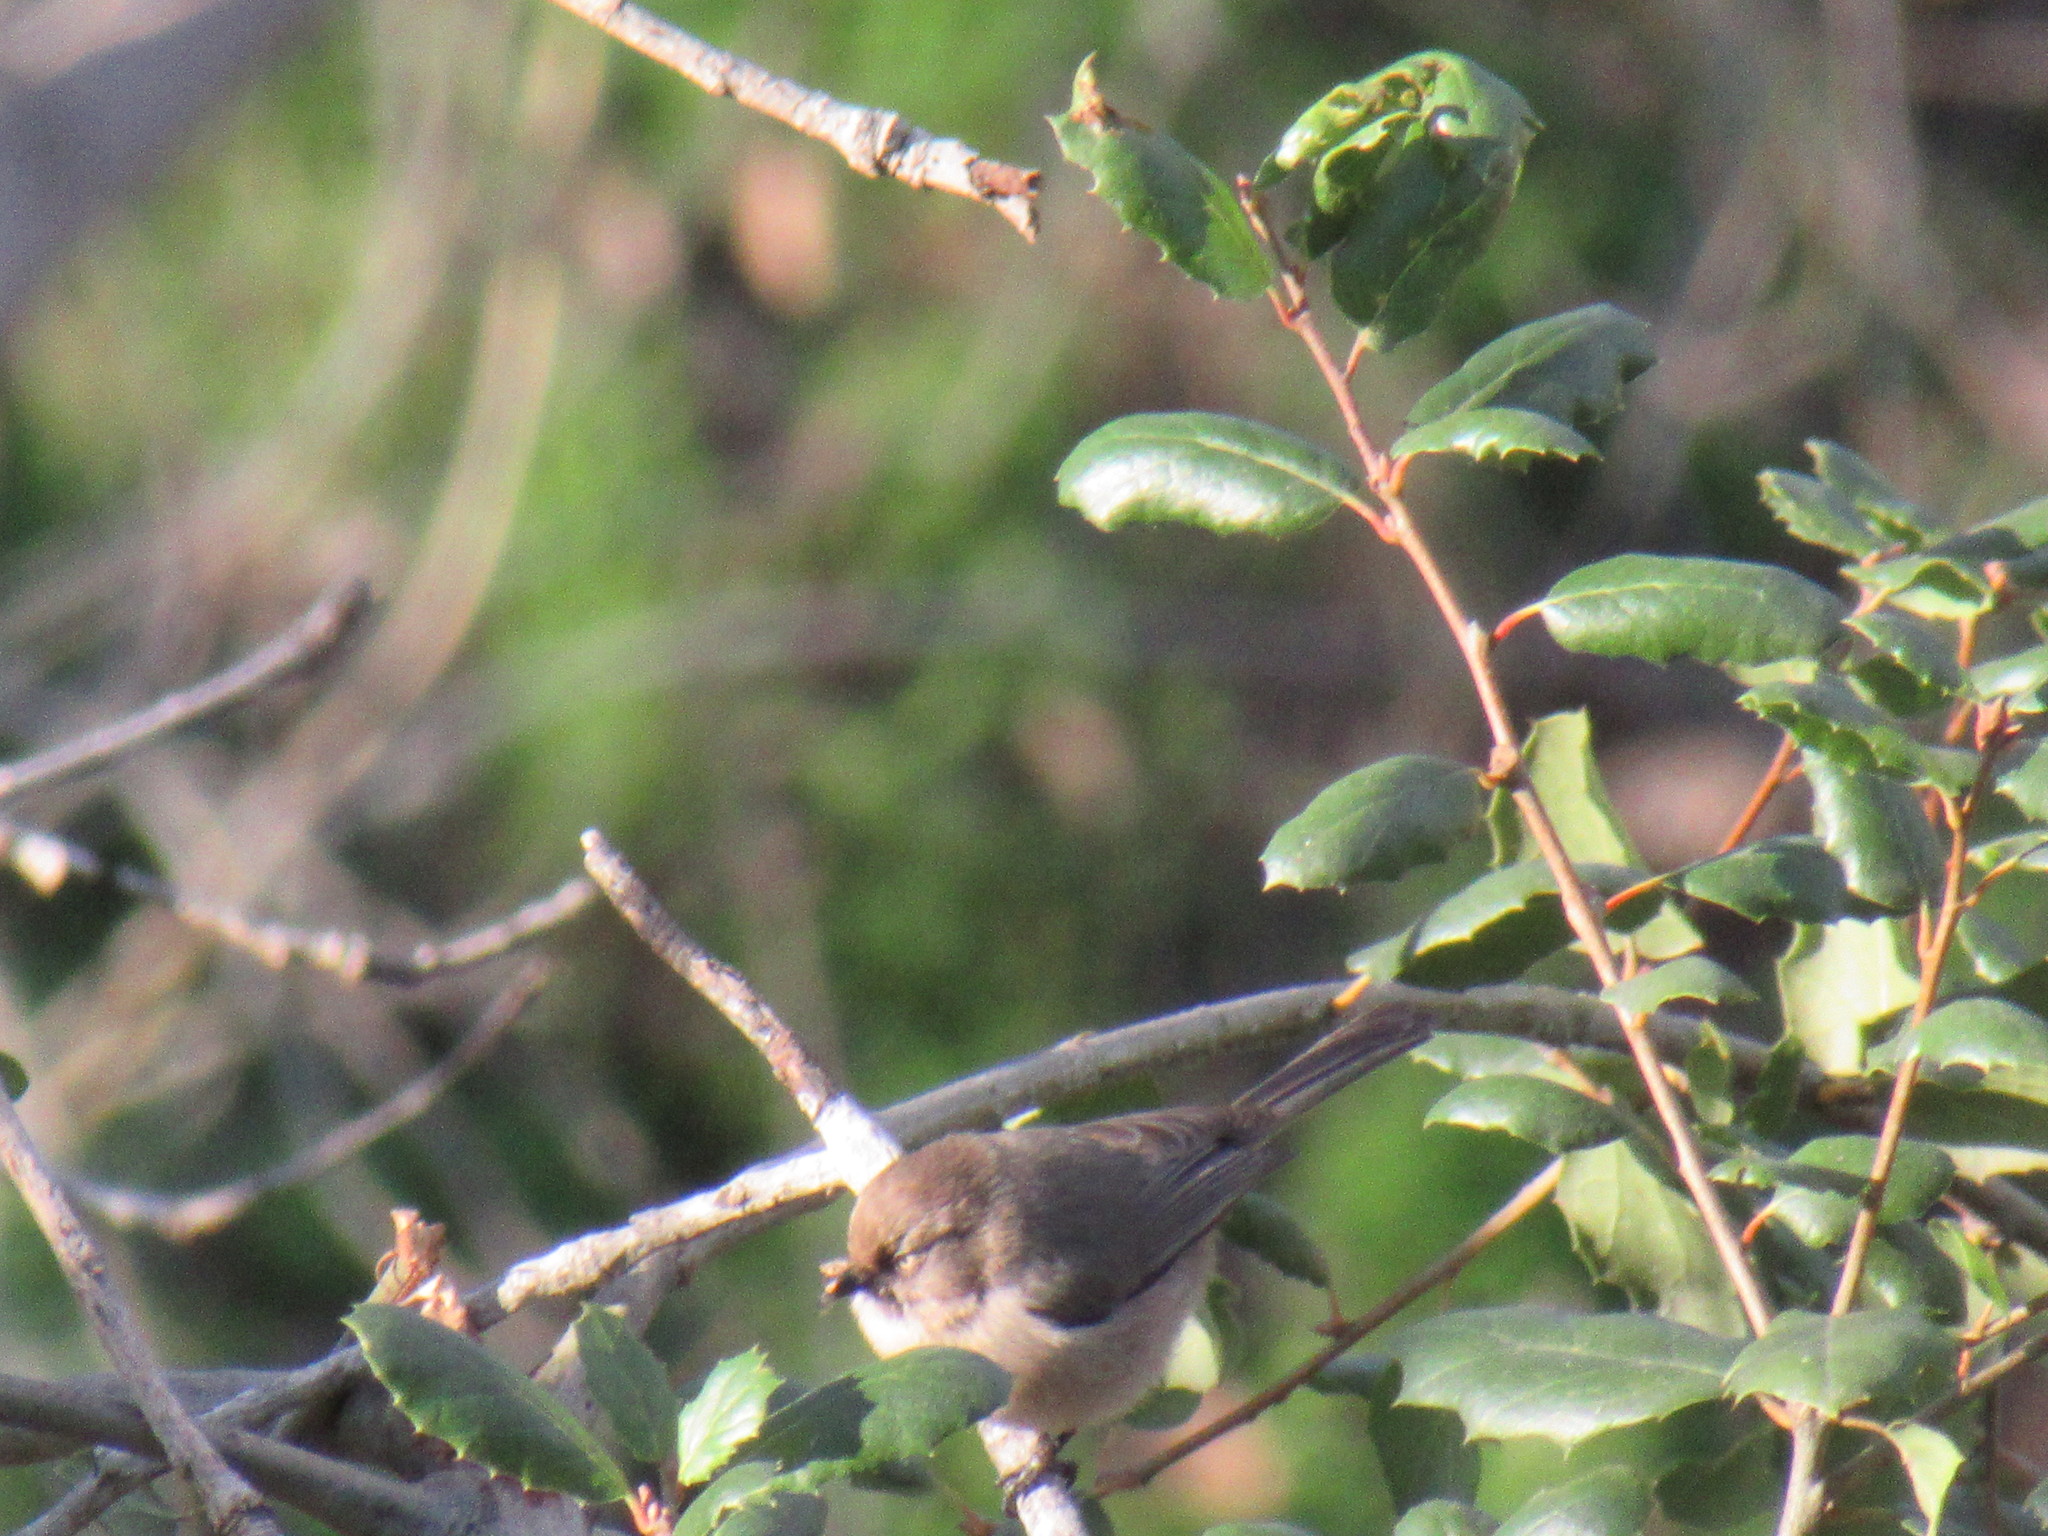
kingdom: Animalia
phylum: Chordata
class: Aves
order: Passeriformes
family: Aegithalidae
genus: Psaltriparus
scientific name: Psaltriparus minimus
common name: American bushtit
